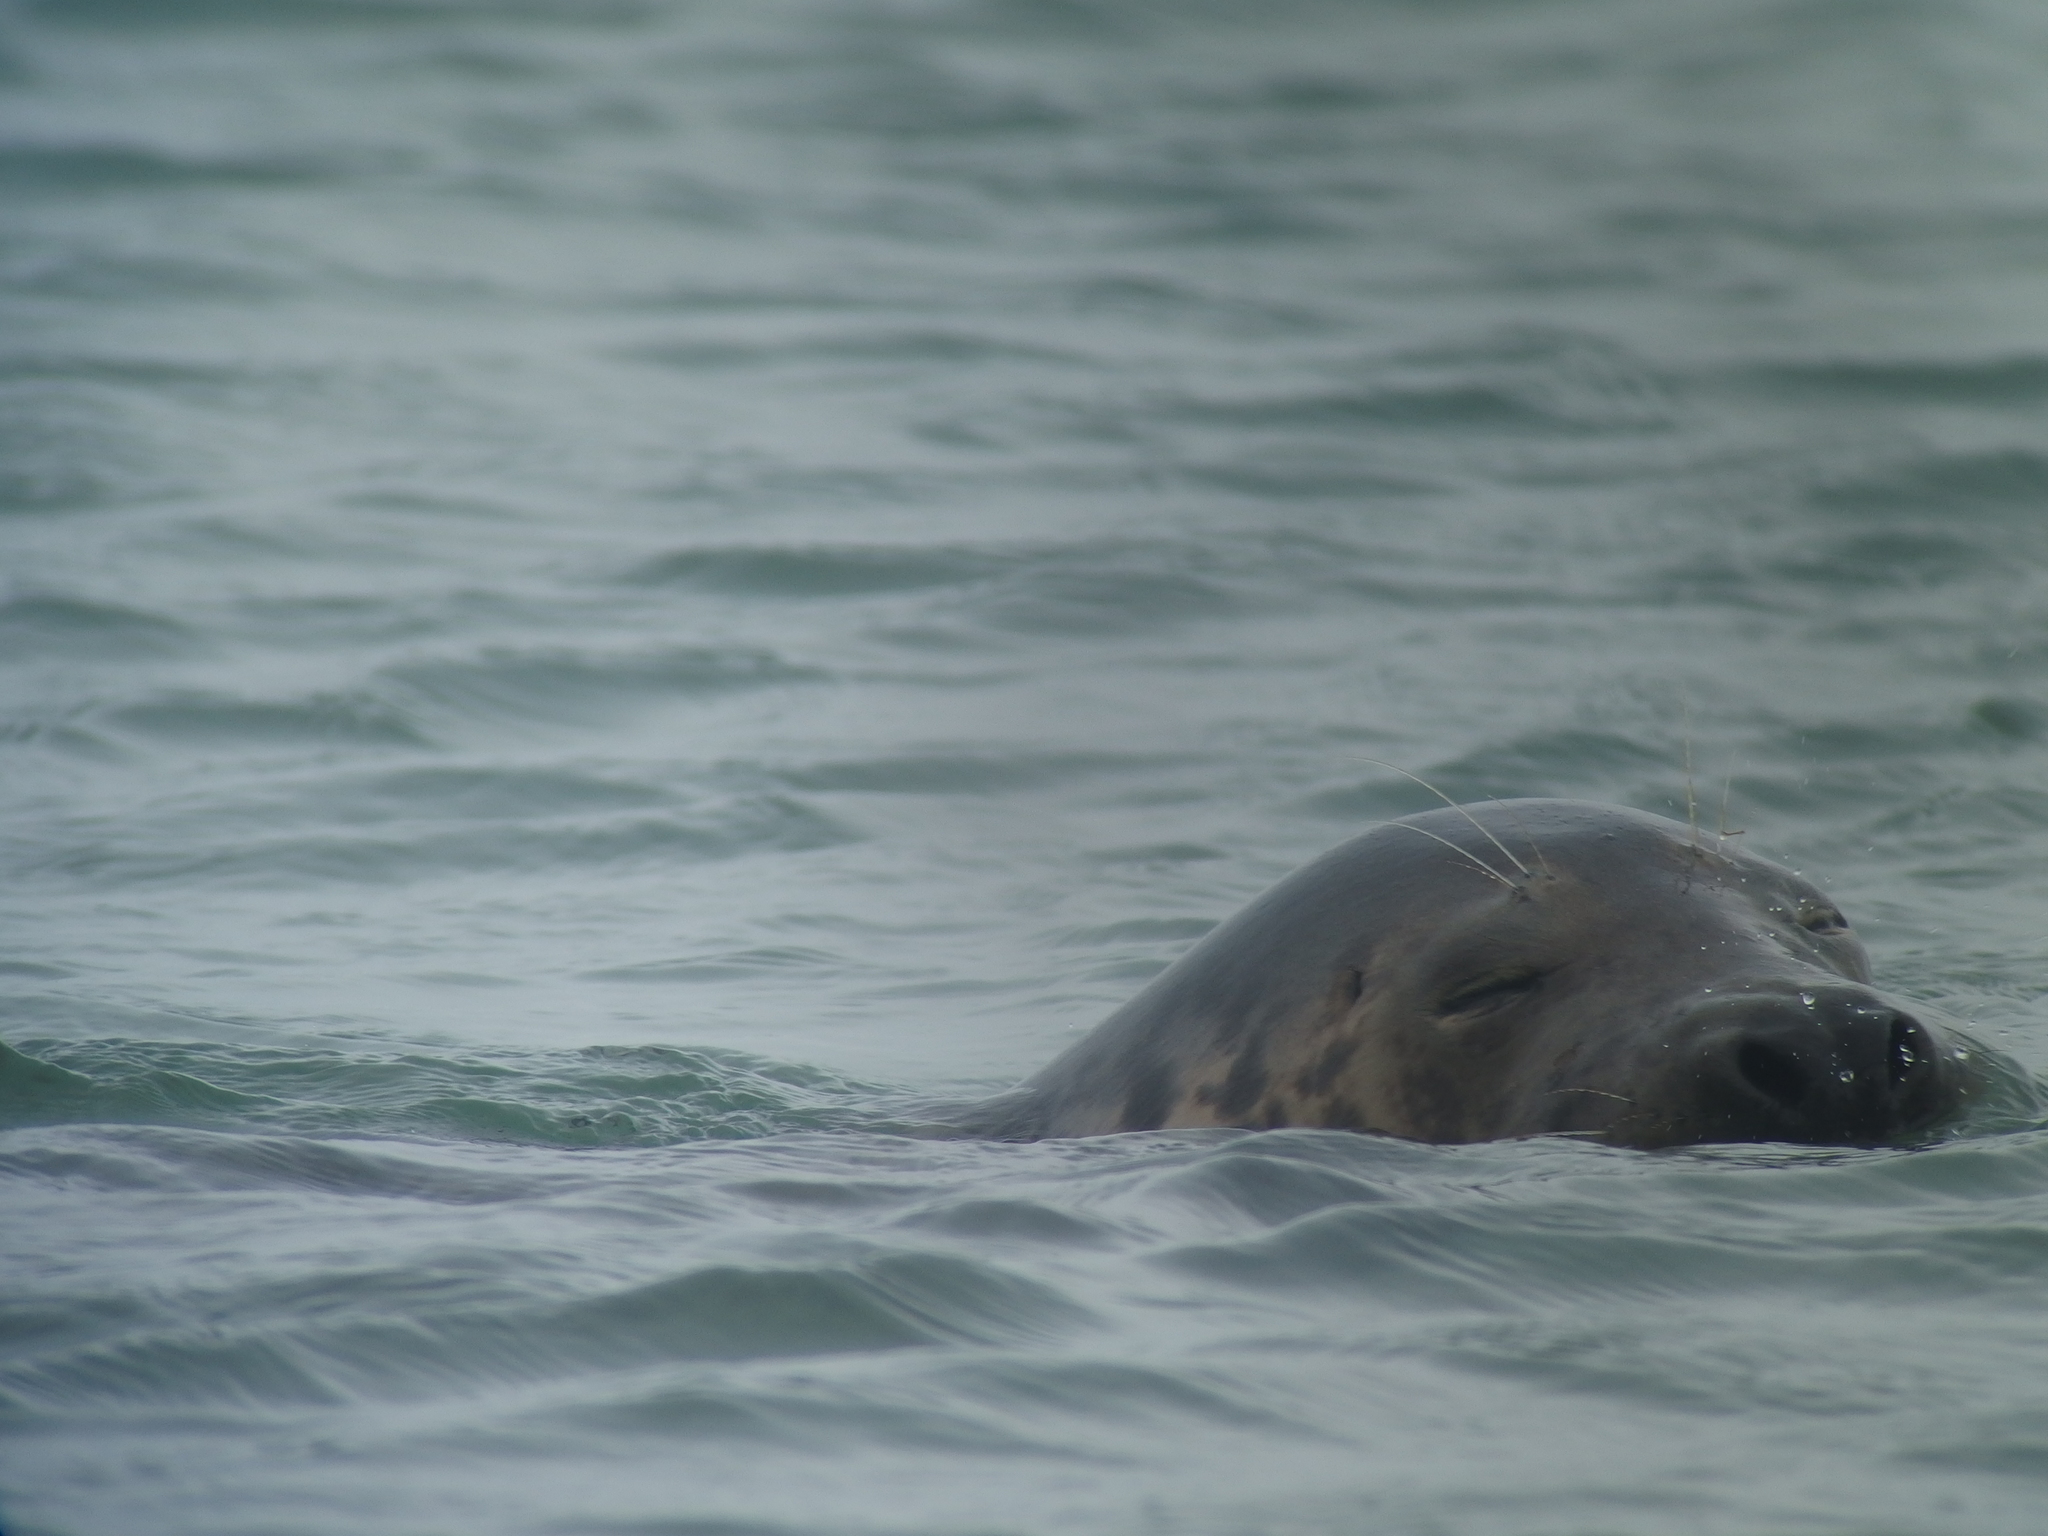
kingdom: Animalia
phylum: Chordata
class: Mammalia
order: Carnivora
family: Phocidae
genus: Halichoerus
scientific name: Halichoerus grypus
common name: Grey seal
